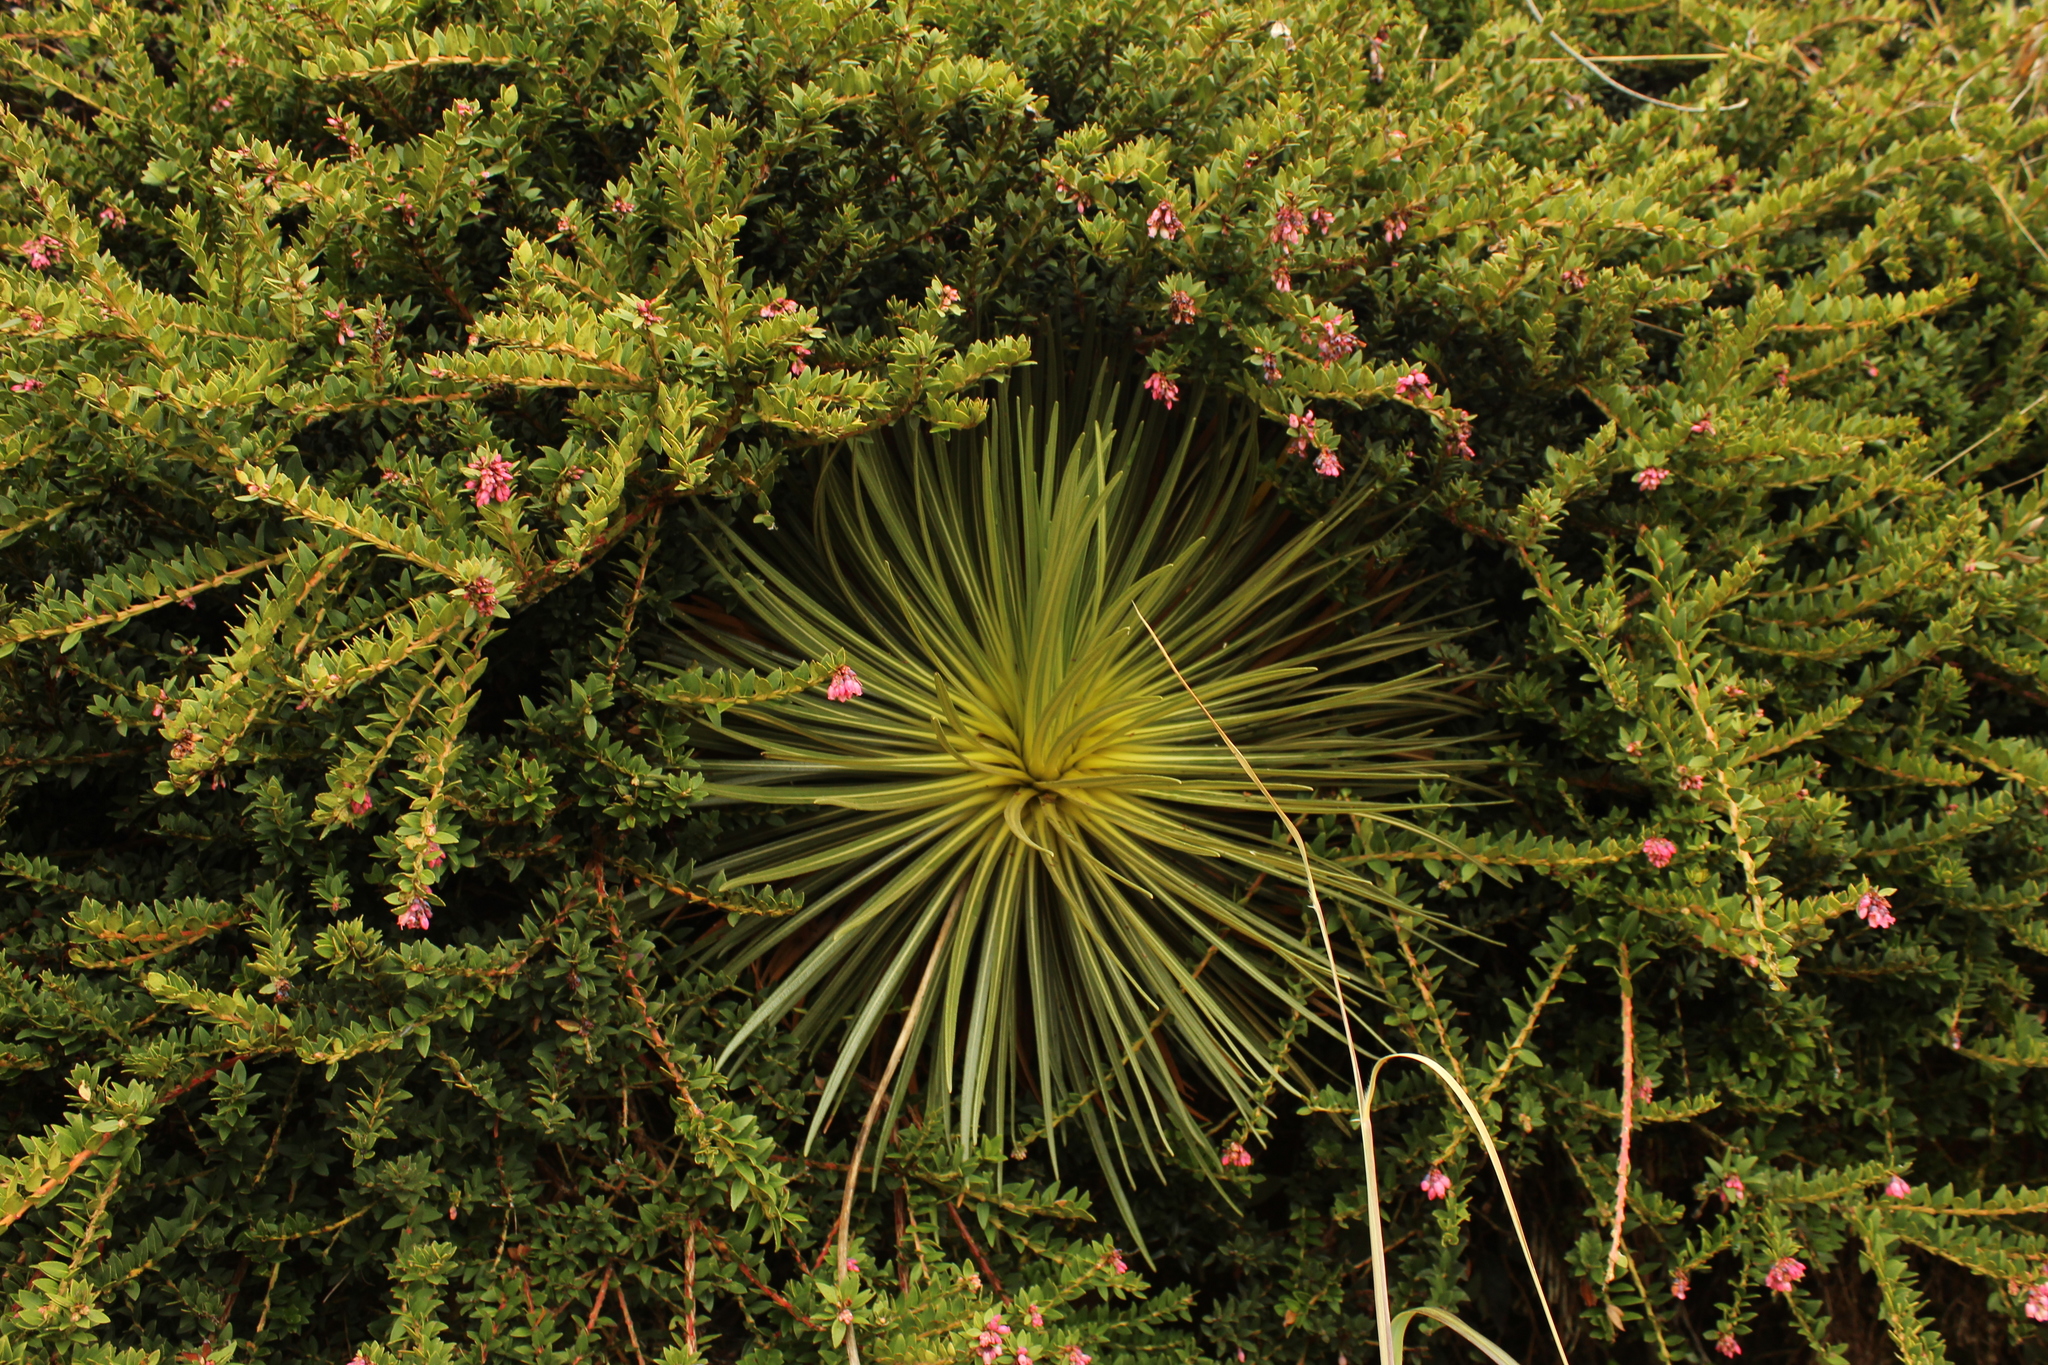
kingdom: Plantae
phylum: Tracheophyta
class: Magnoliopsida
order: Asterales
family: Asteraceae
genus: Espeletia
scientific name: Espeletia glandulosa
